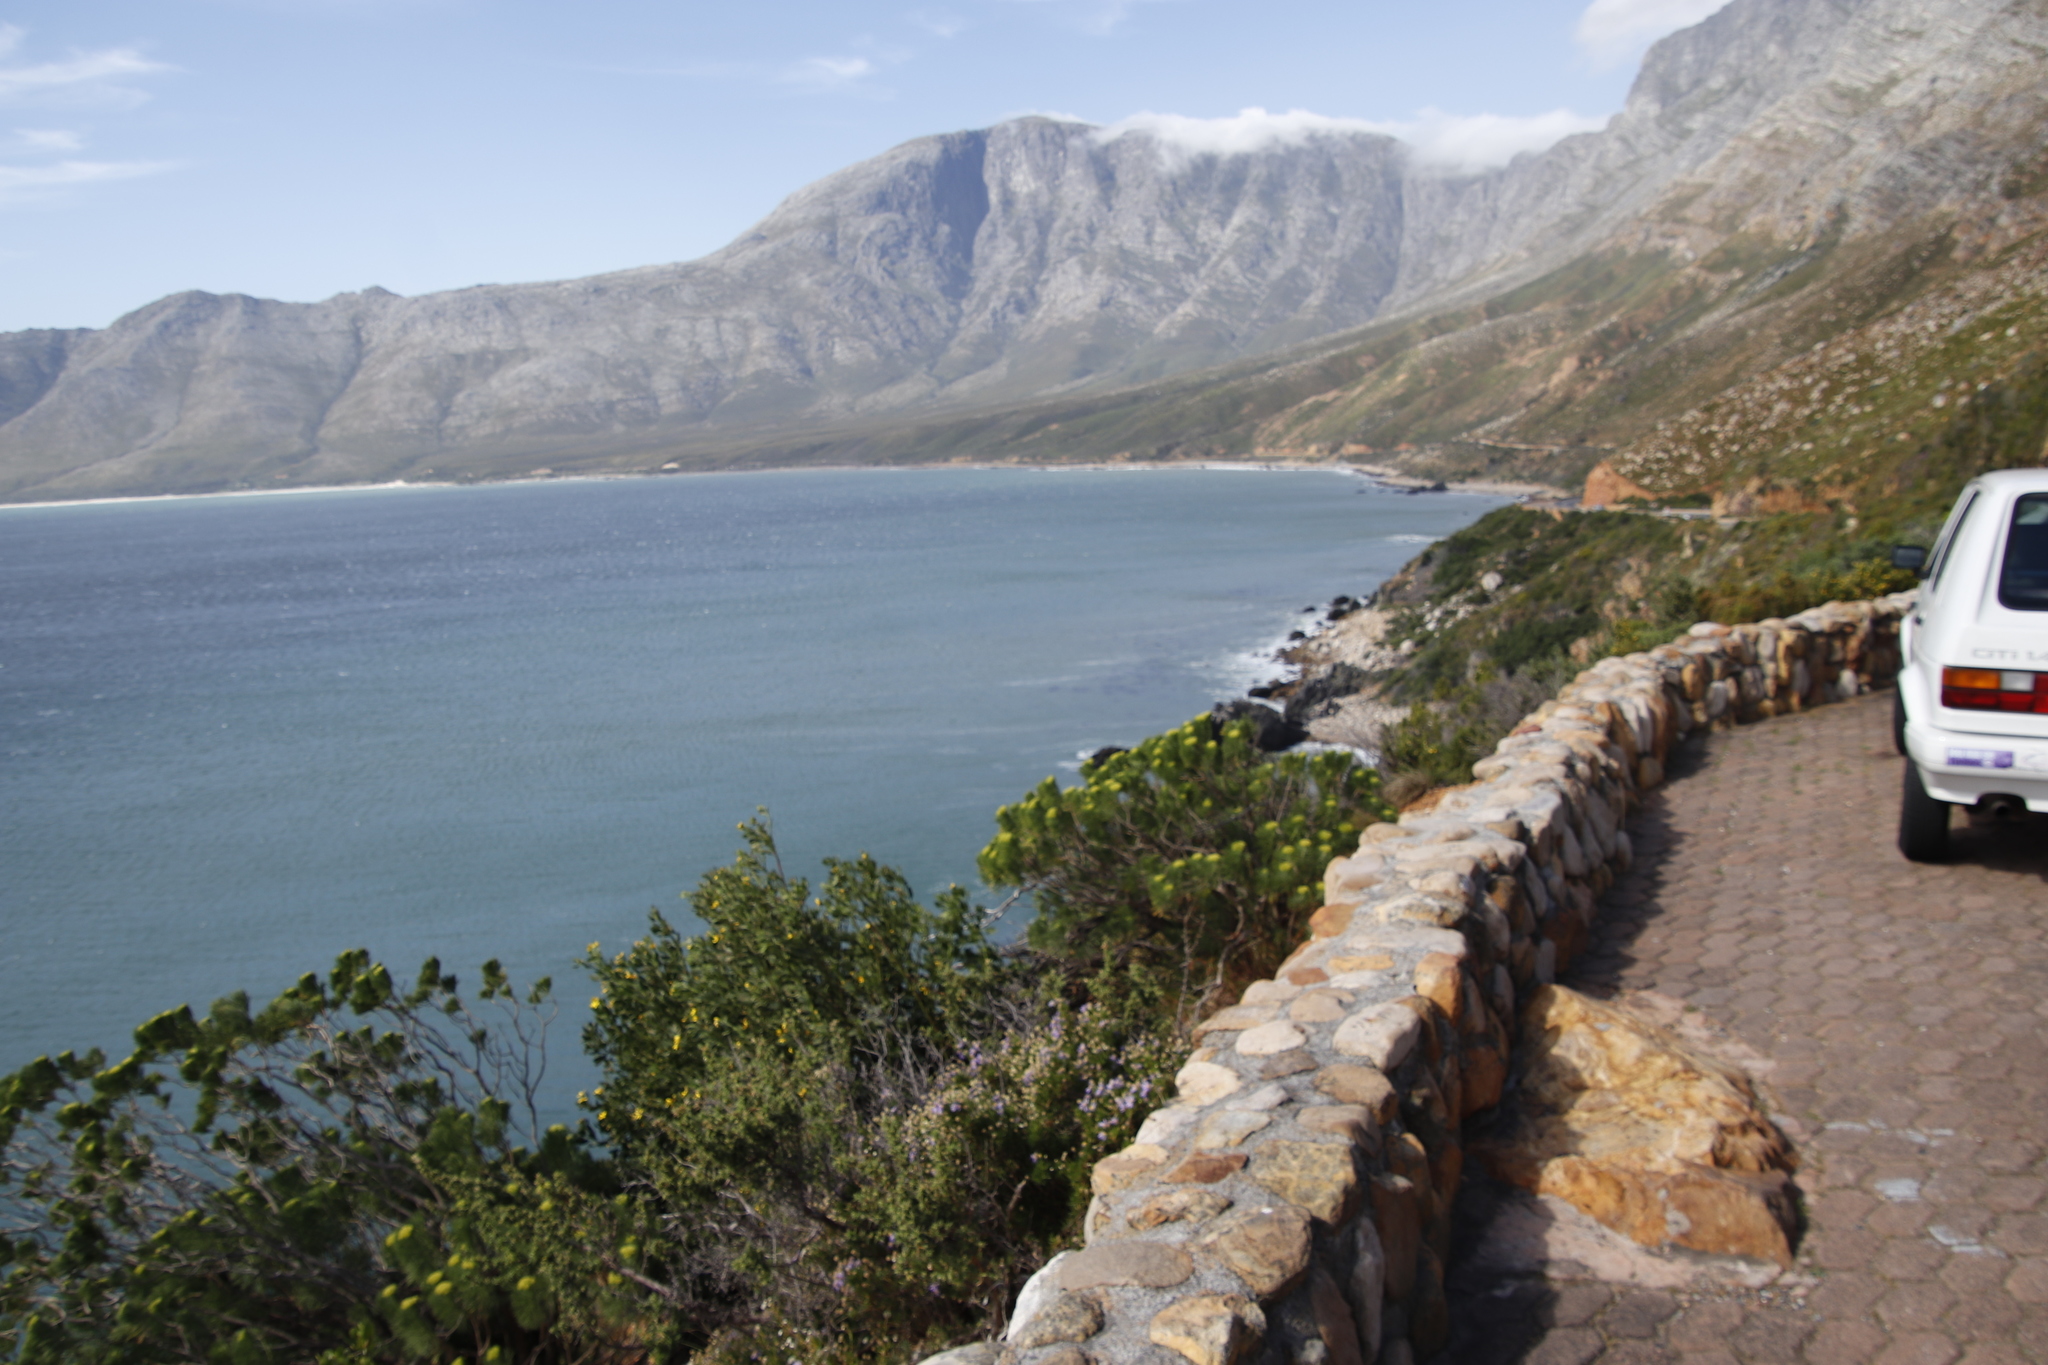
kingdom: Plantae
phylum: Tracheophyta
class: Magnoliopsida
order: Asterales
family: Asteraceae
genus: Hymenolepis
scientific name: Hymenolepis crithmifolia
